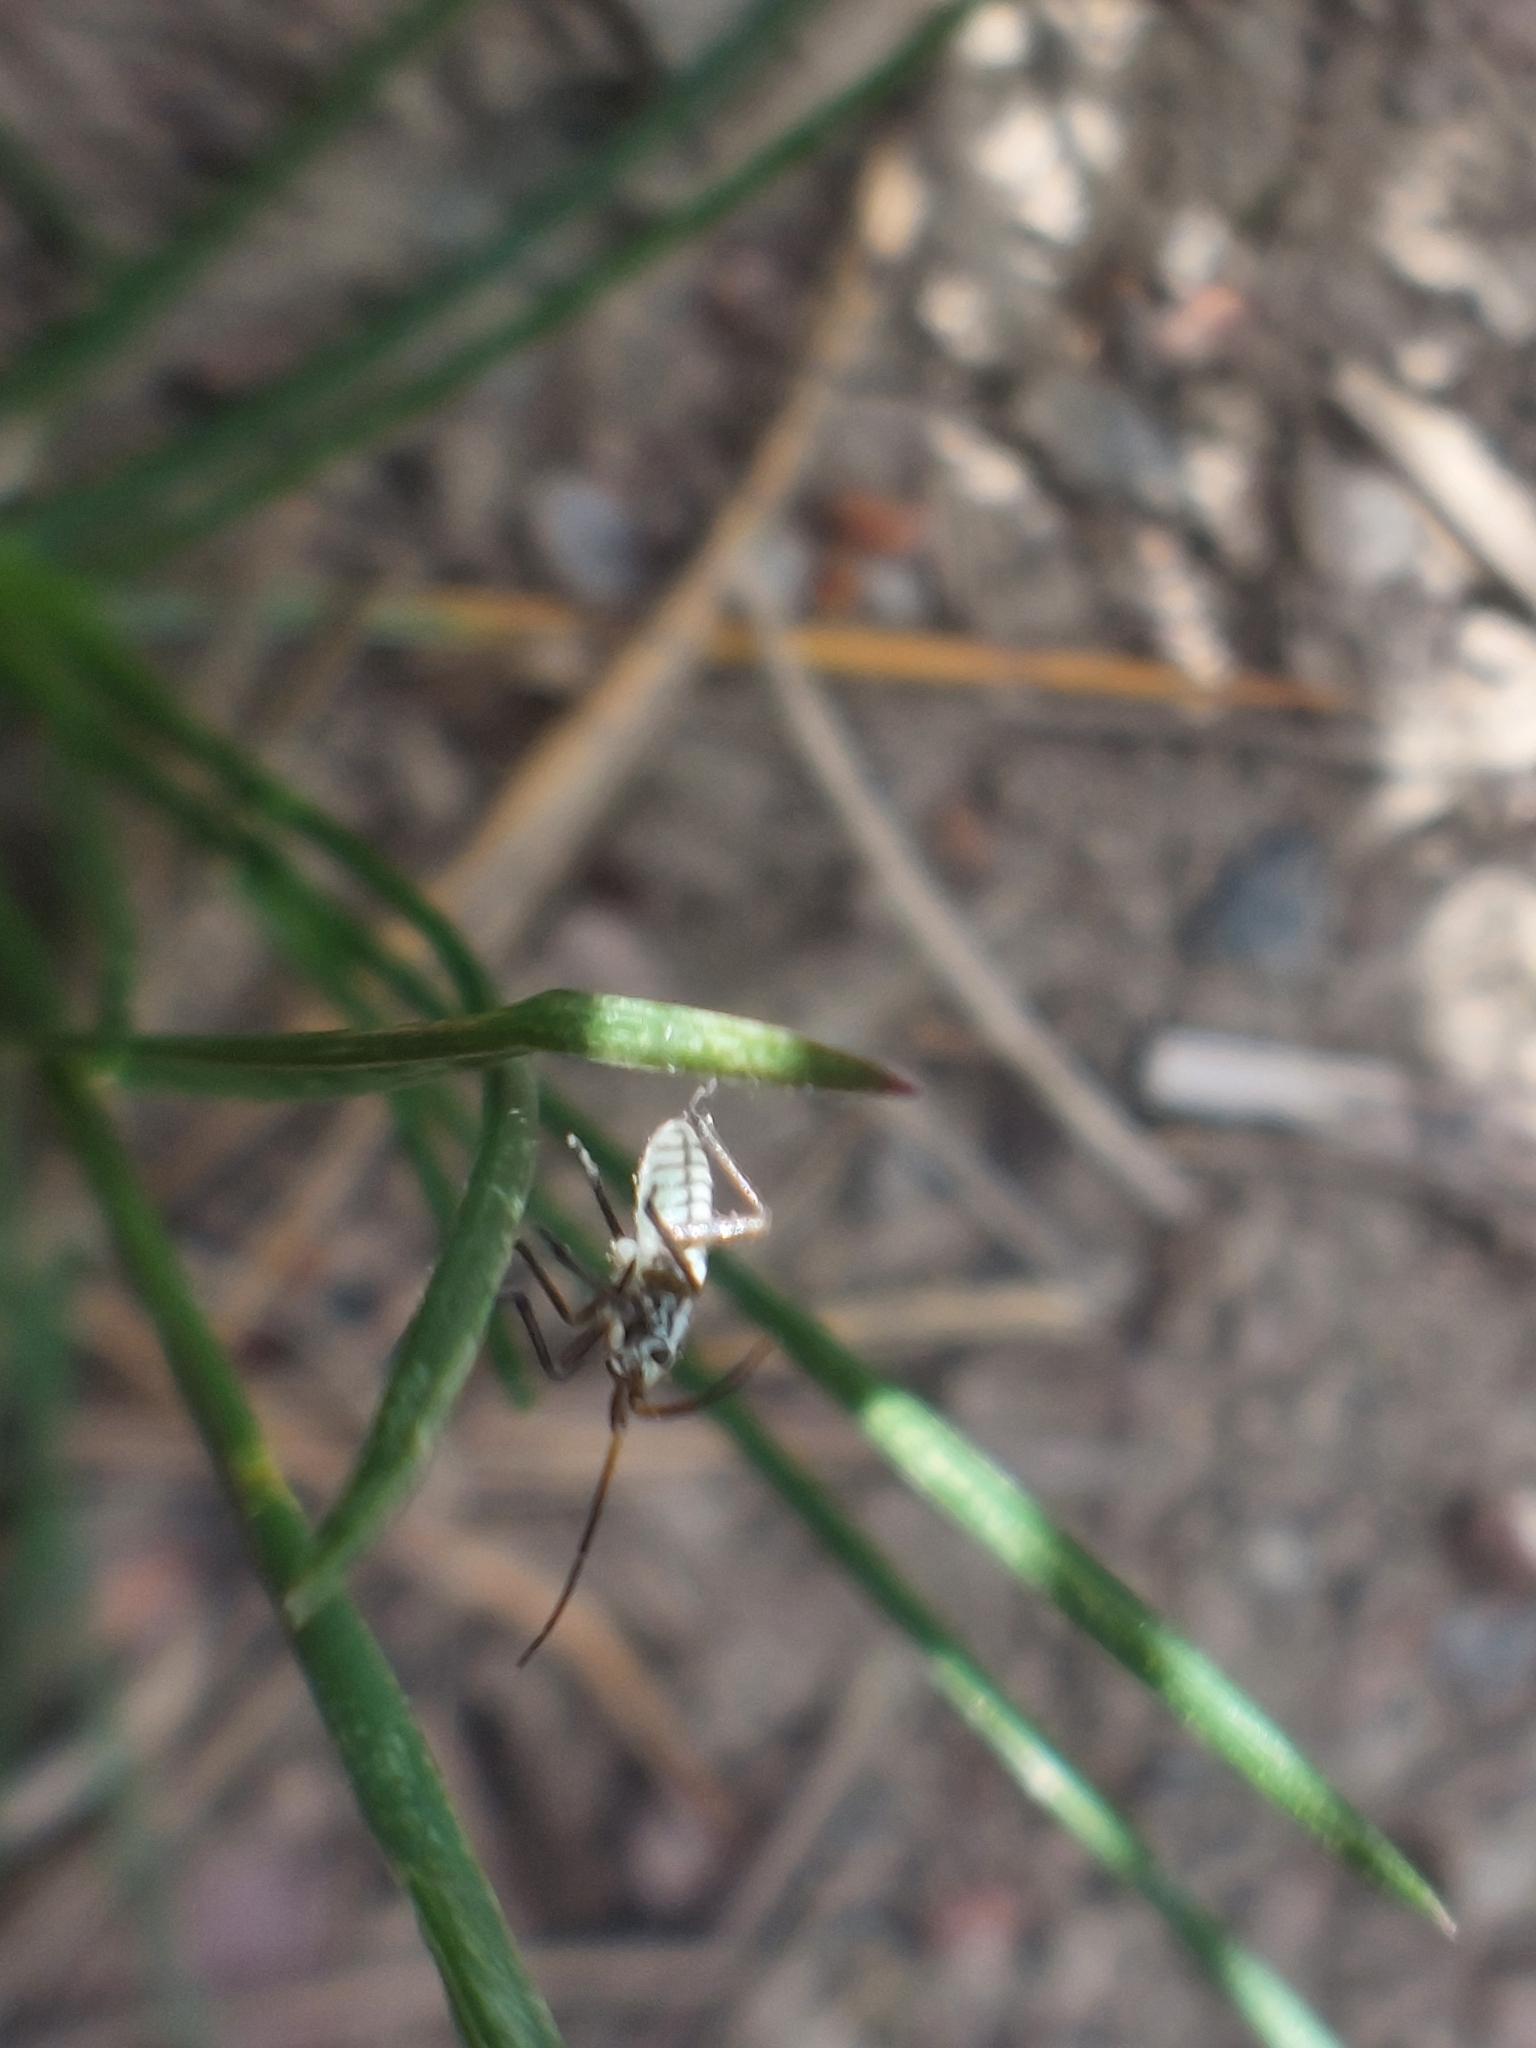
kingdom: Animalia
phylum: Arthropoda
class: Insecta
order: Hemiptera
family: Miridae
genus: Leptopterna
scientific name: Leptopterna dolabrata
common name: Meadow plant bug
